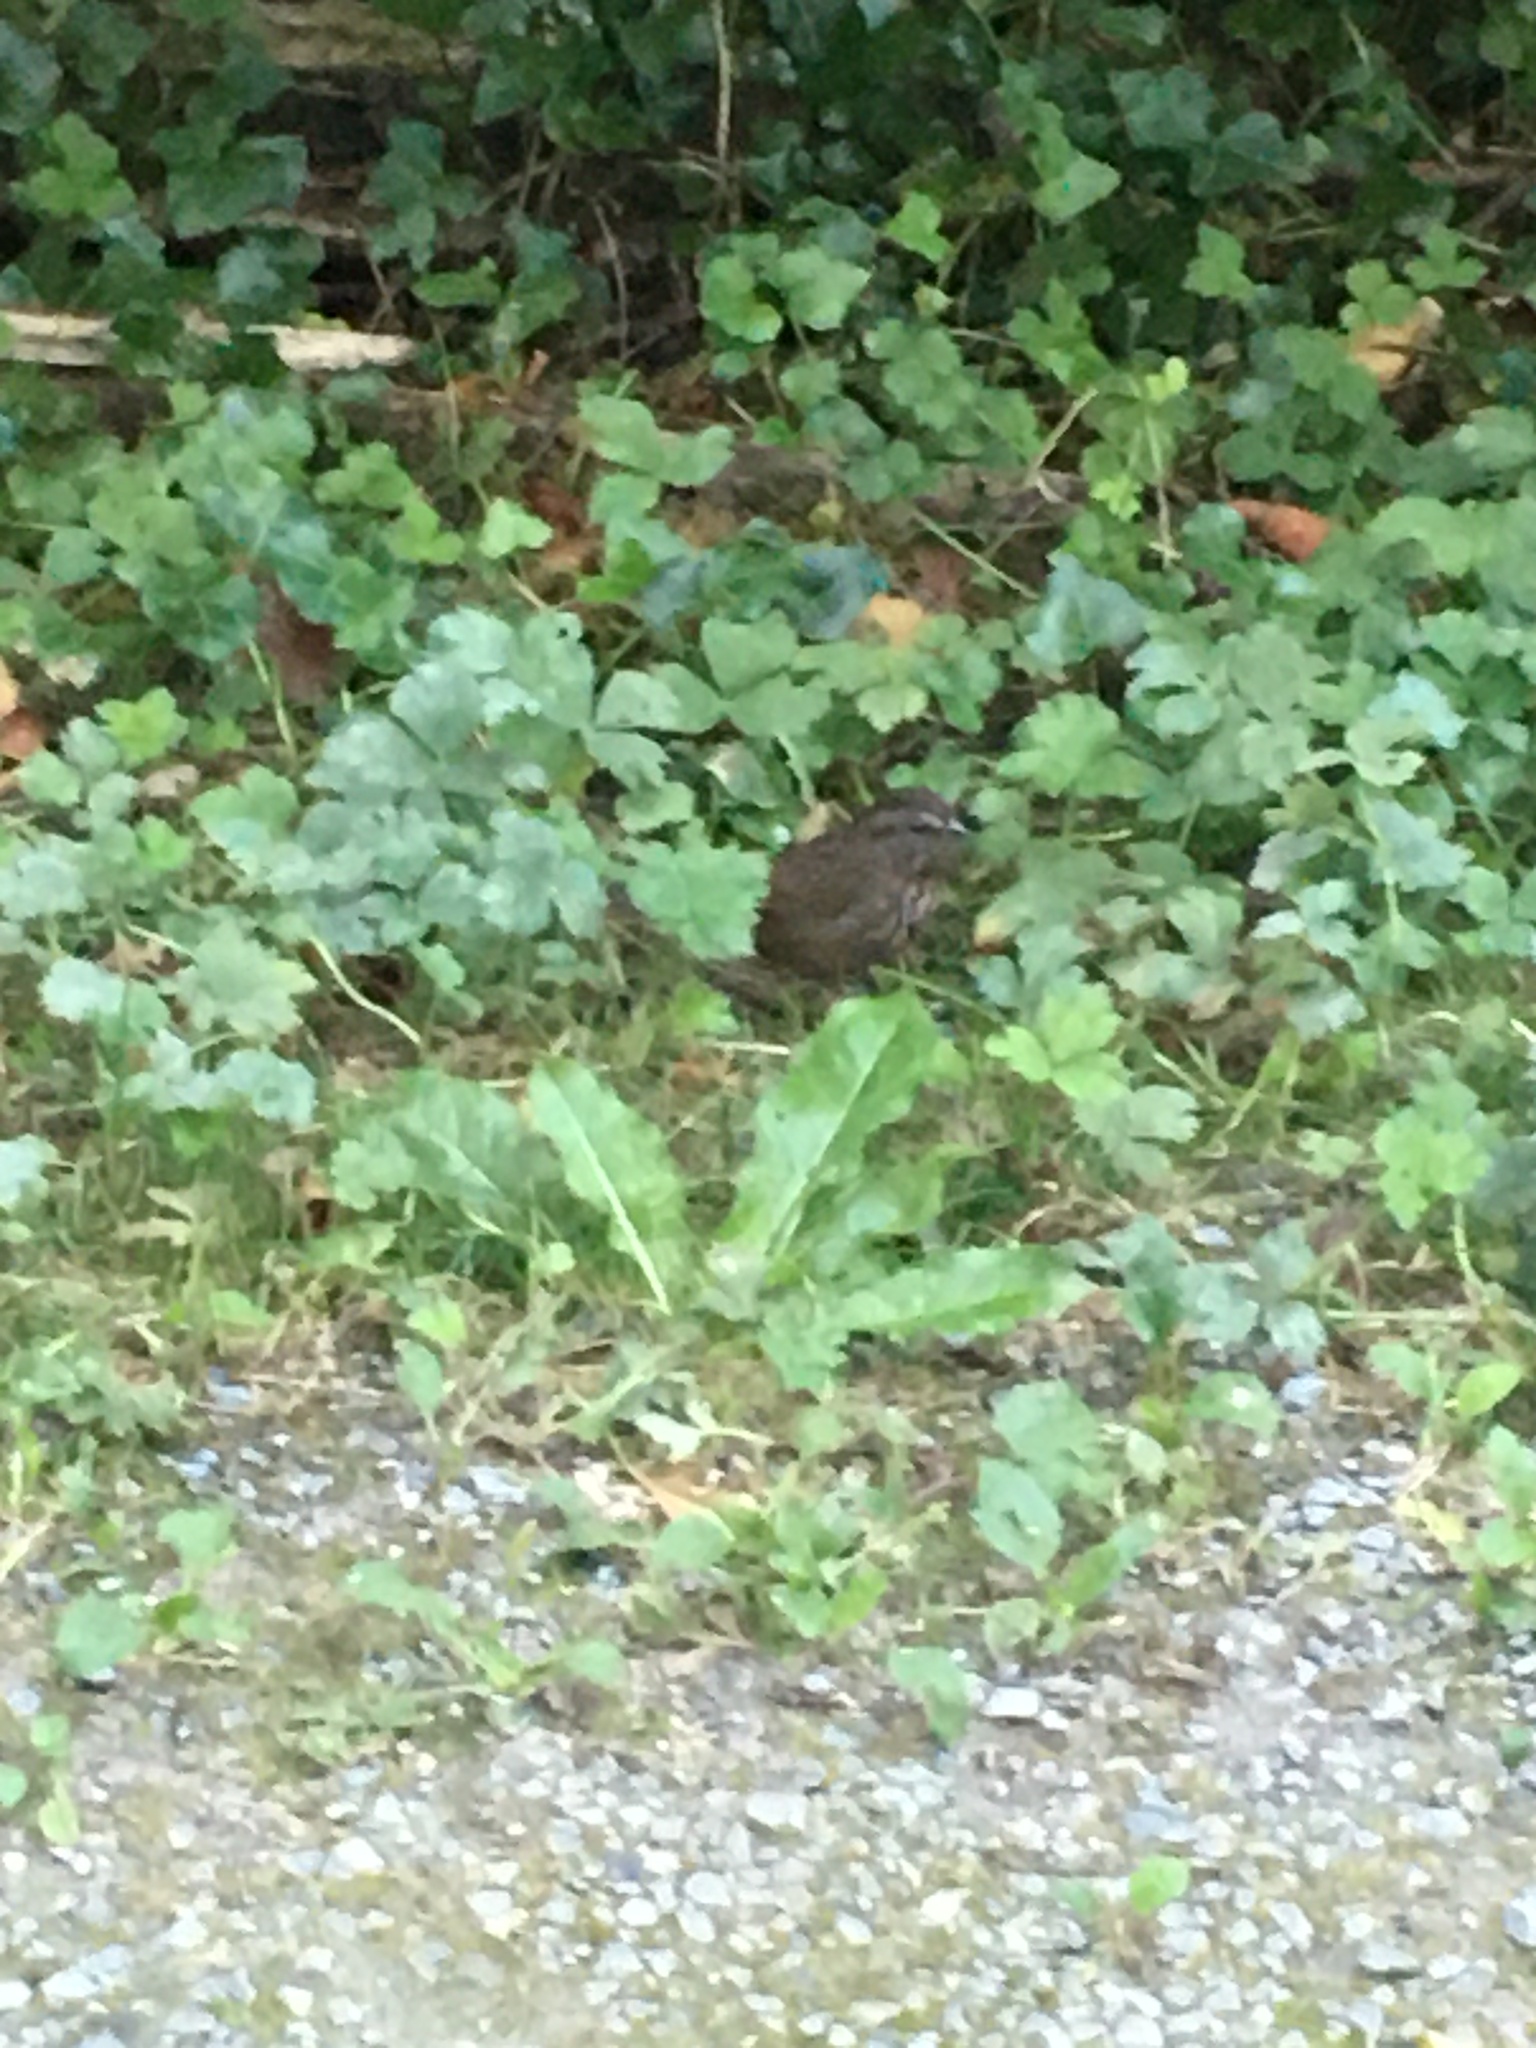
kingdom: Animalia
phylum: Chordata
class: Aves
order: Passeriformes
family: Passerellidae
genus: Melospiza
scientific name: Melospiza melodia
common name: Song sparrow
